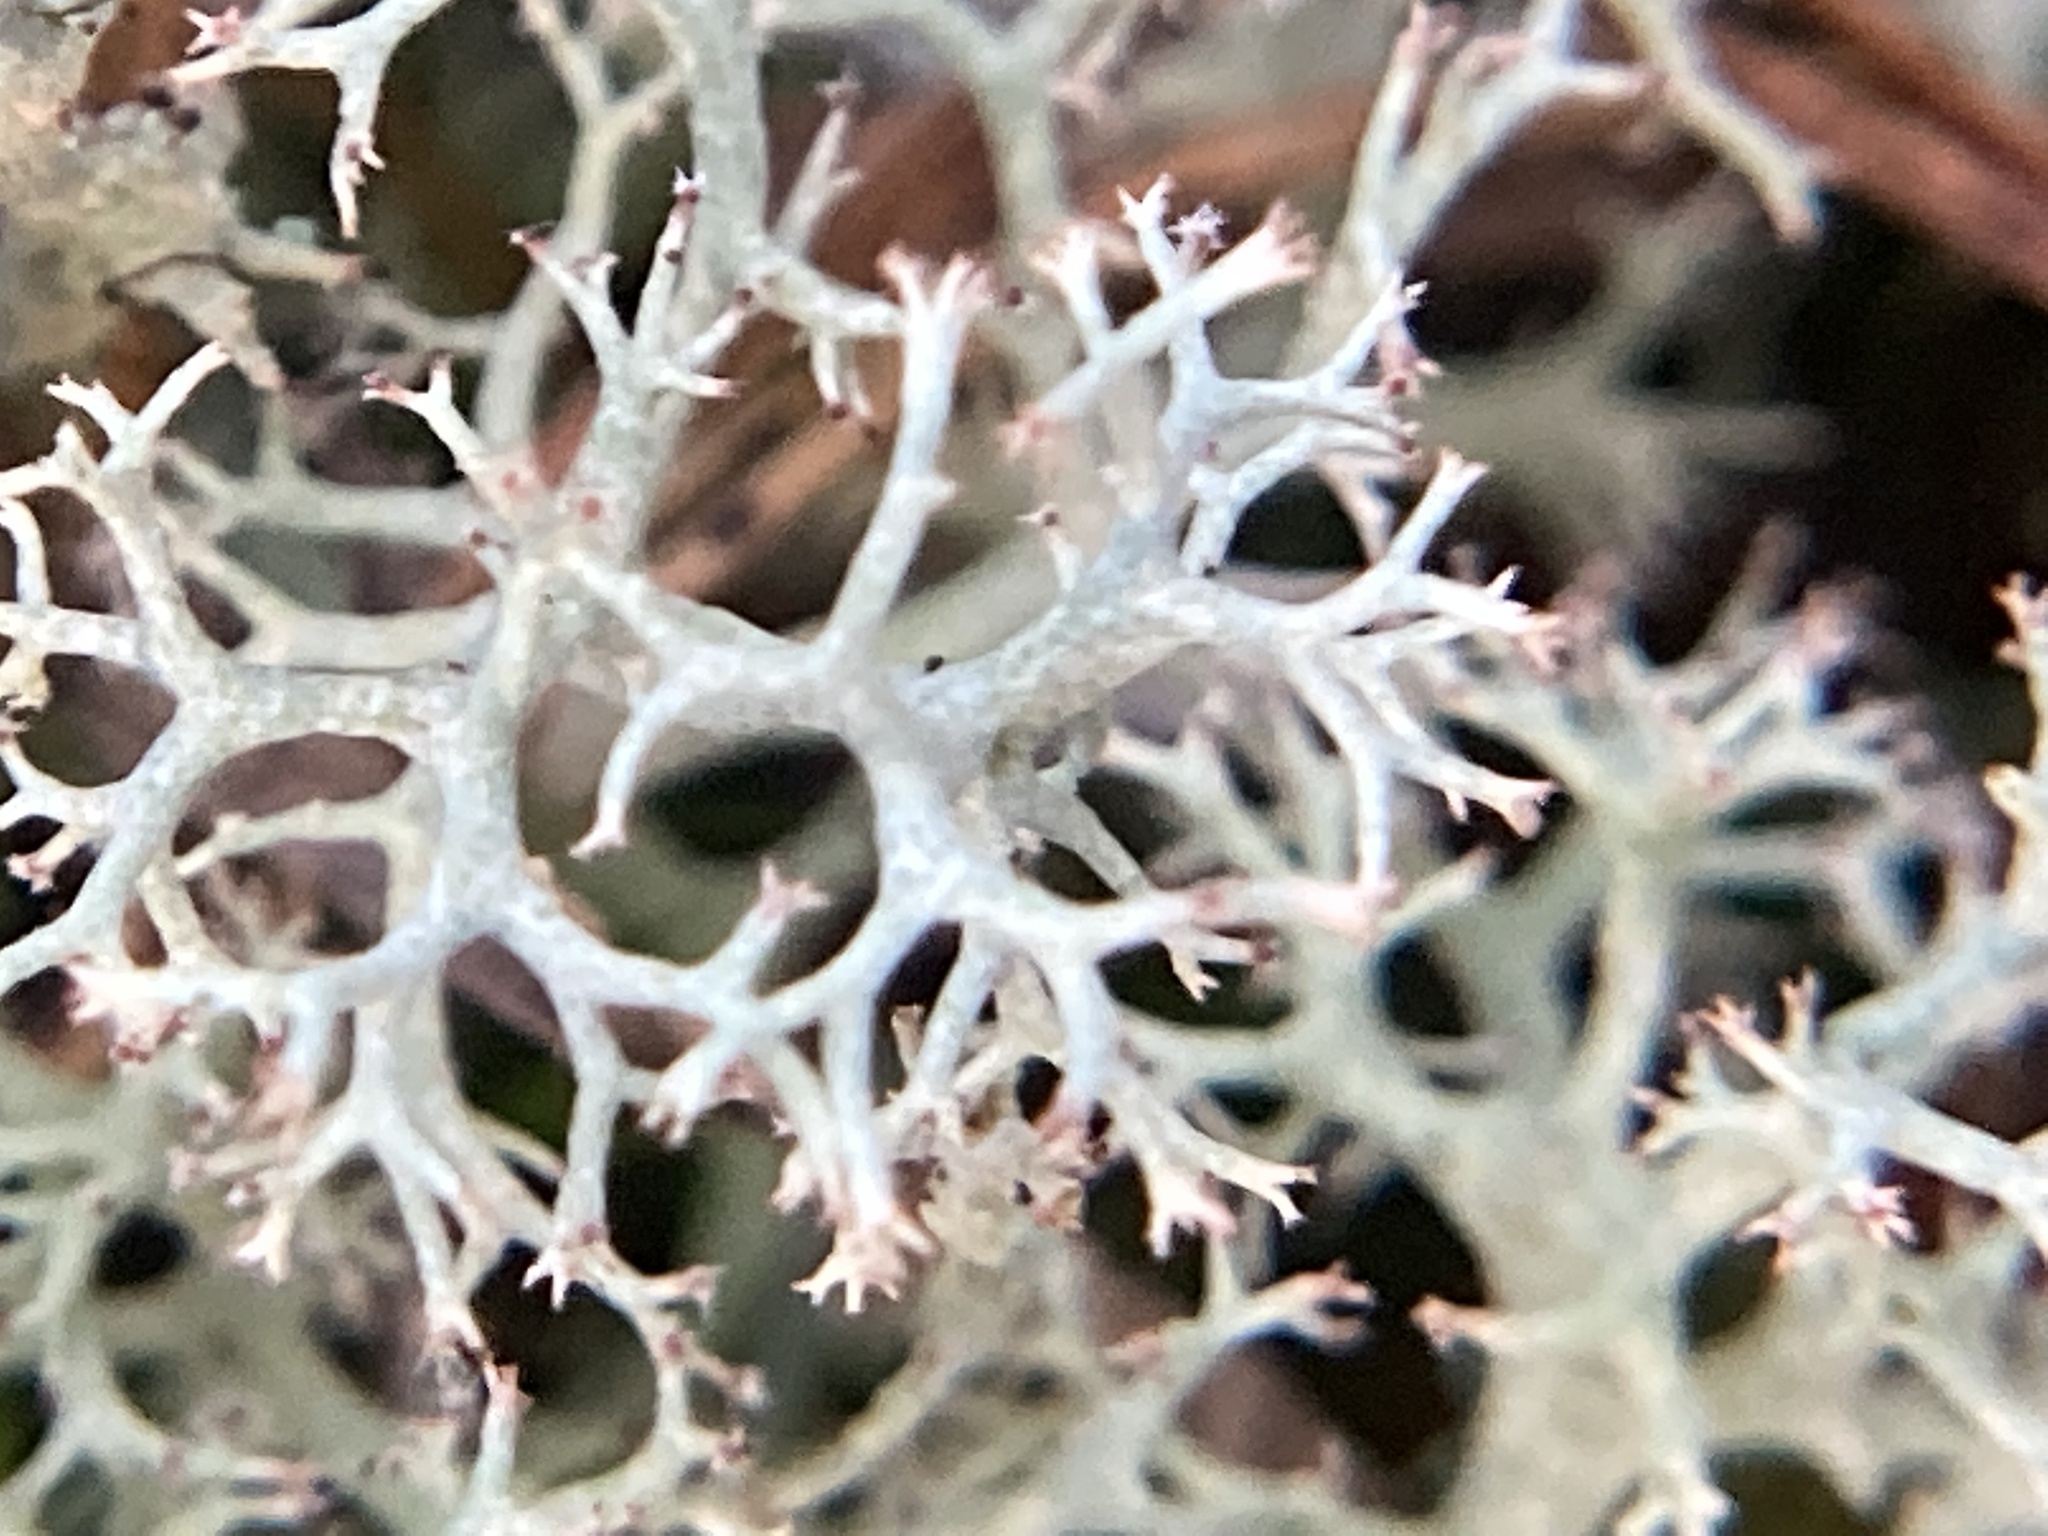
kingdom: Fungi
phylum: Ascomycota
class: Lecanoromycetes
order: Lecanorales
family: Cladoniaceae
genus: Cladonia
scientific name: Cladonia rangiferina
